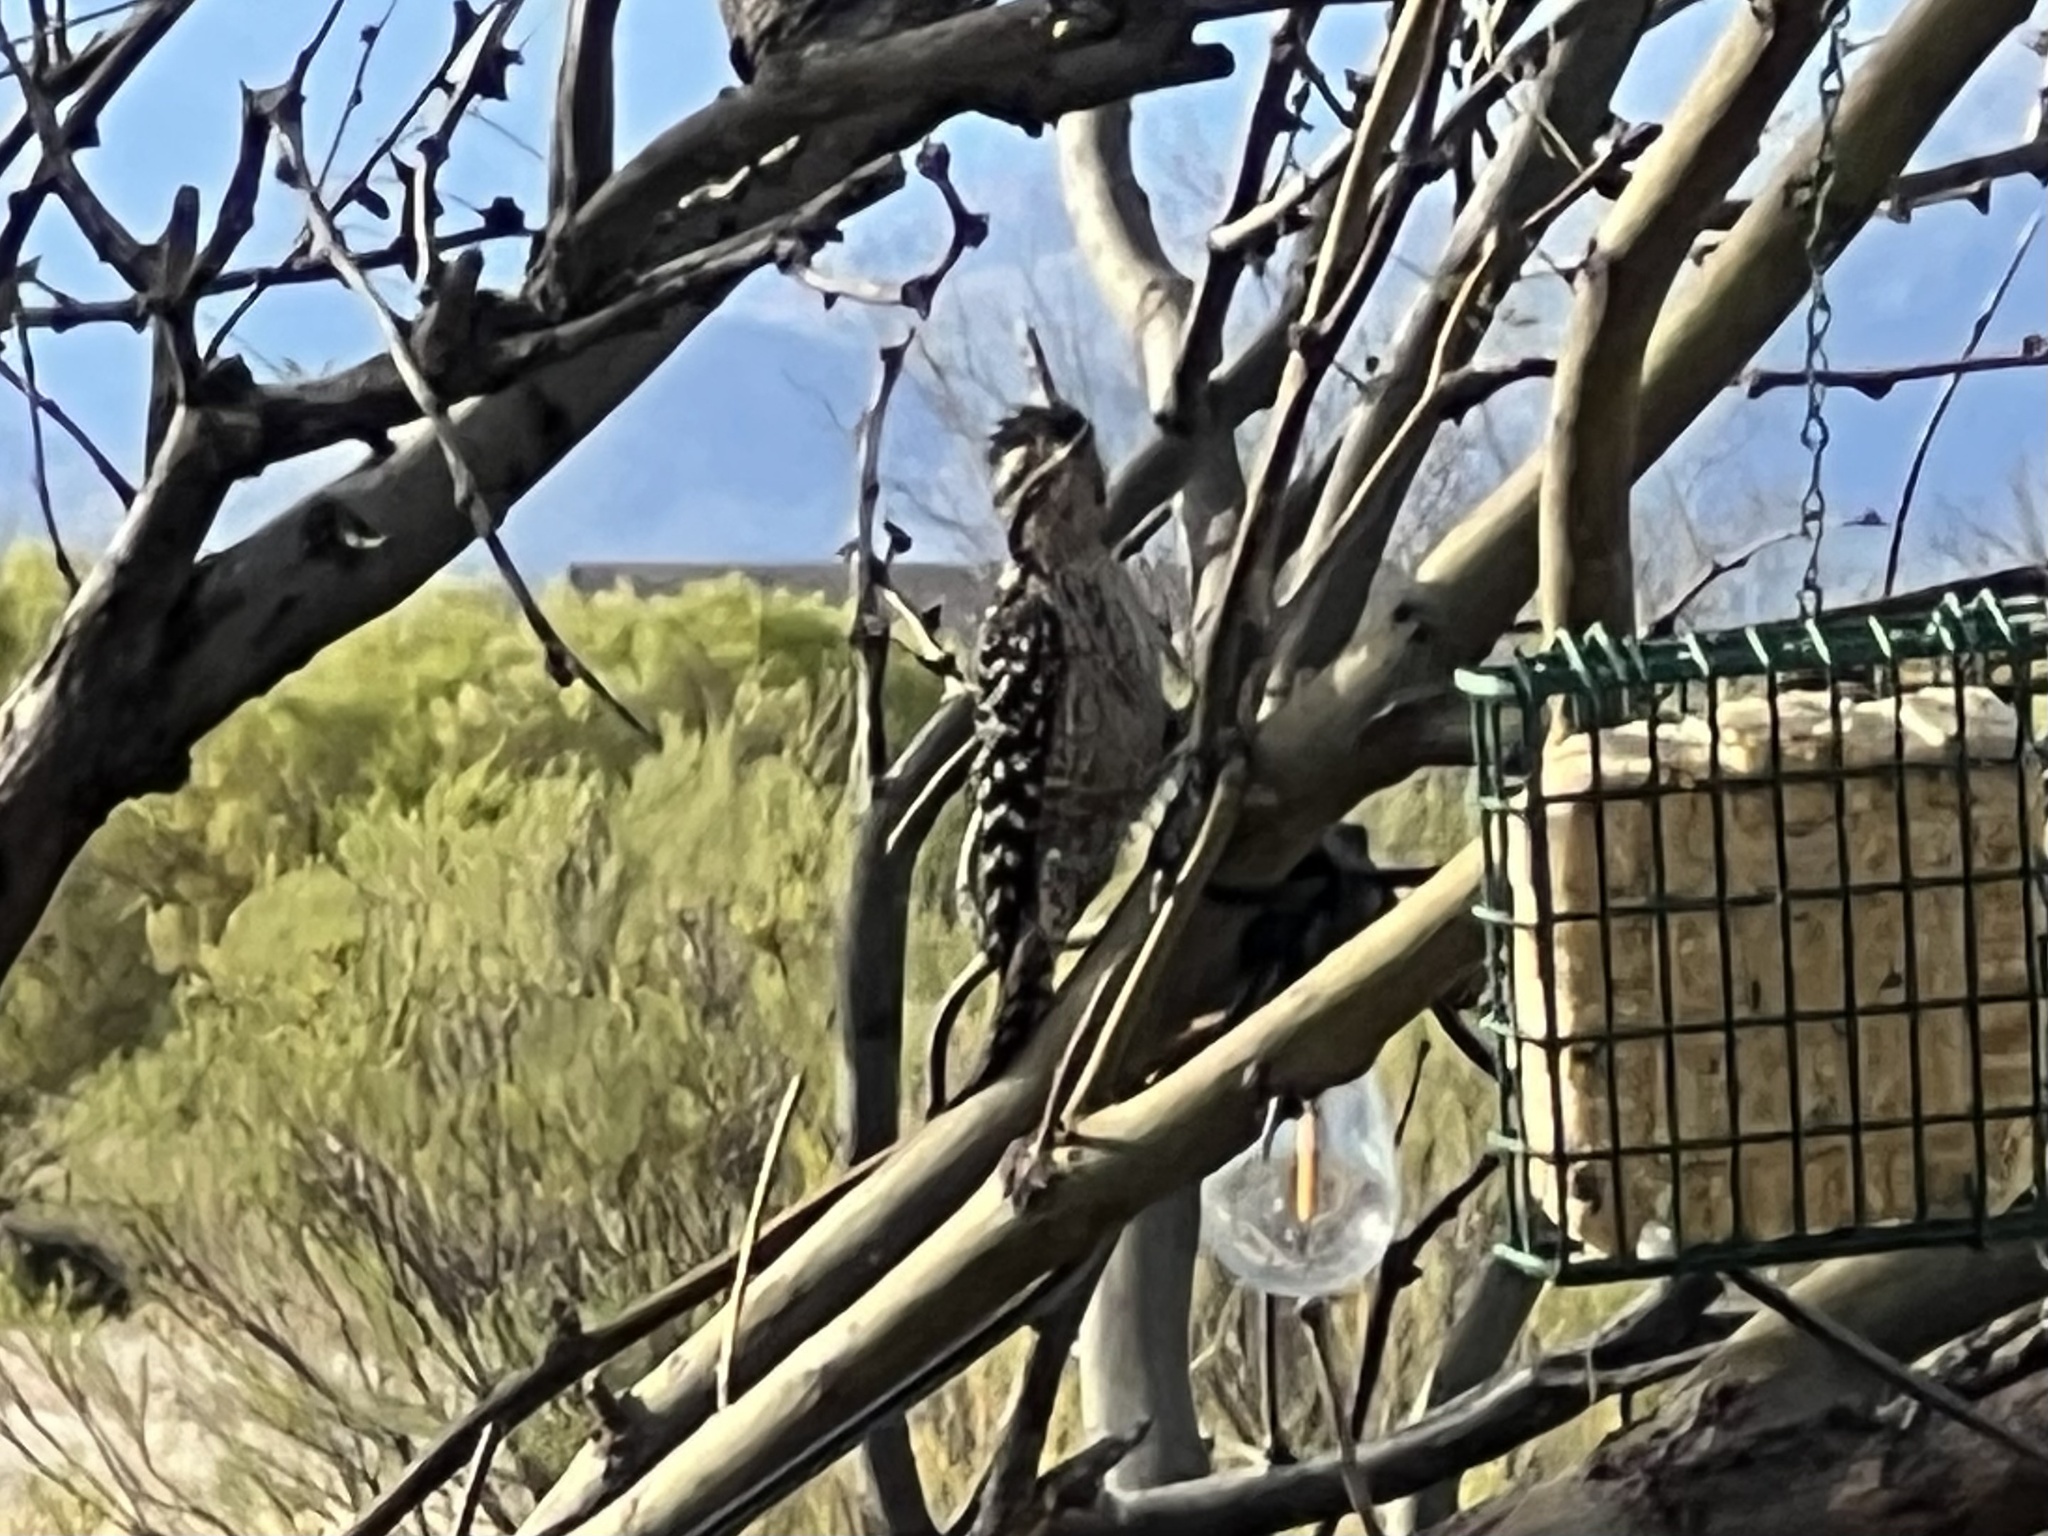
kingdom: Animalia
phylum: Chordata
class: Aves
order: Piciformes
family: Picidae
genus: Dryobates
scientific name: Dryobates scalaris
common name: Ladder-backed woodpecker
